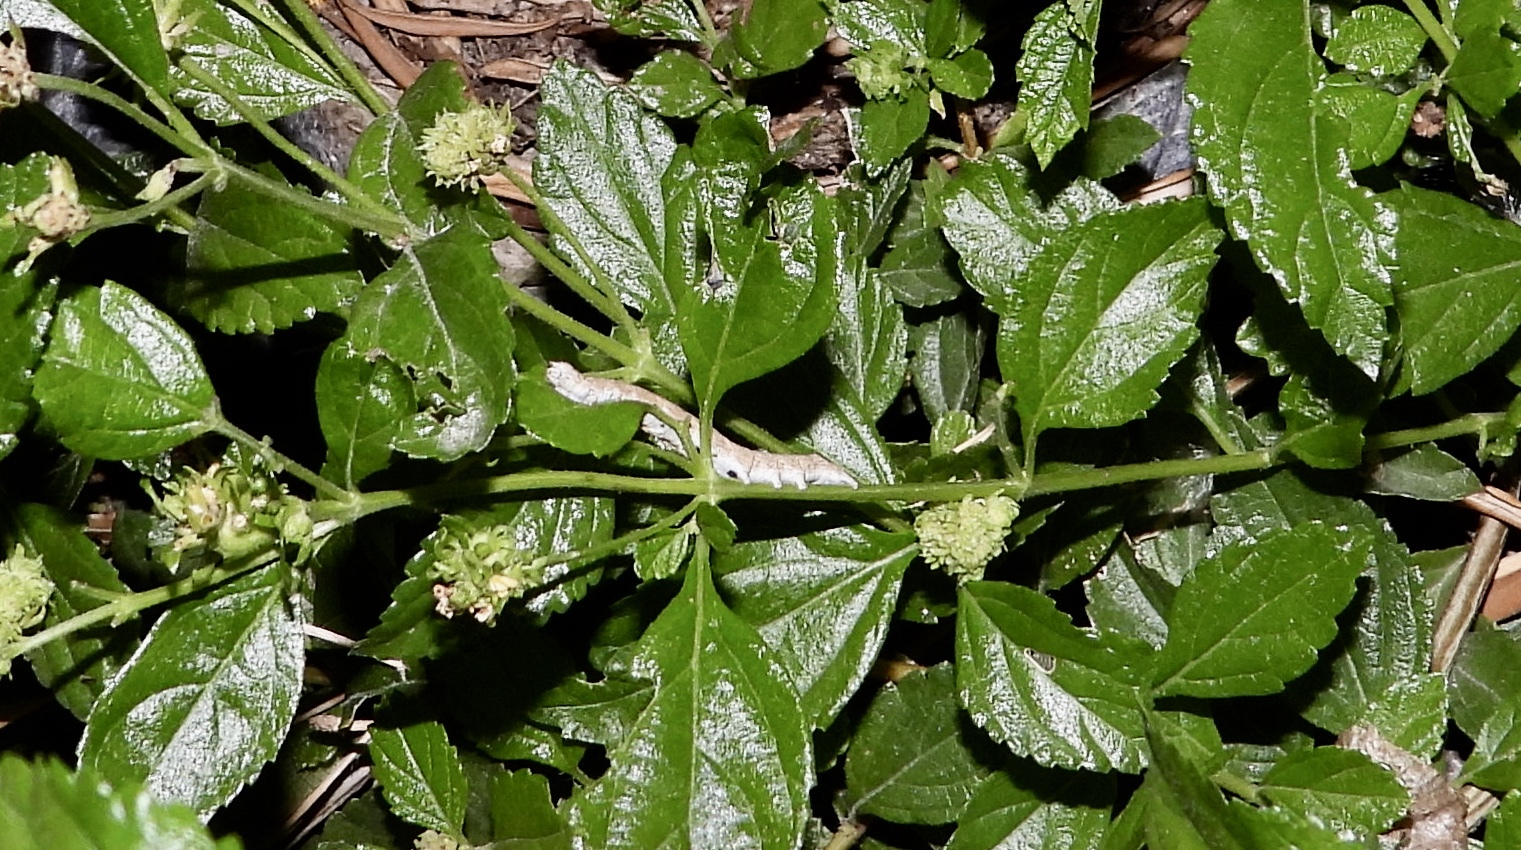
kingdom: Animalia
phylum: Arthropoda
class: Insecta
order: Lepidoptera
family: Noctuidae
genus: Neogalea
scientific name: Neogalea sunia
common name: Lantana stick caterpillar
